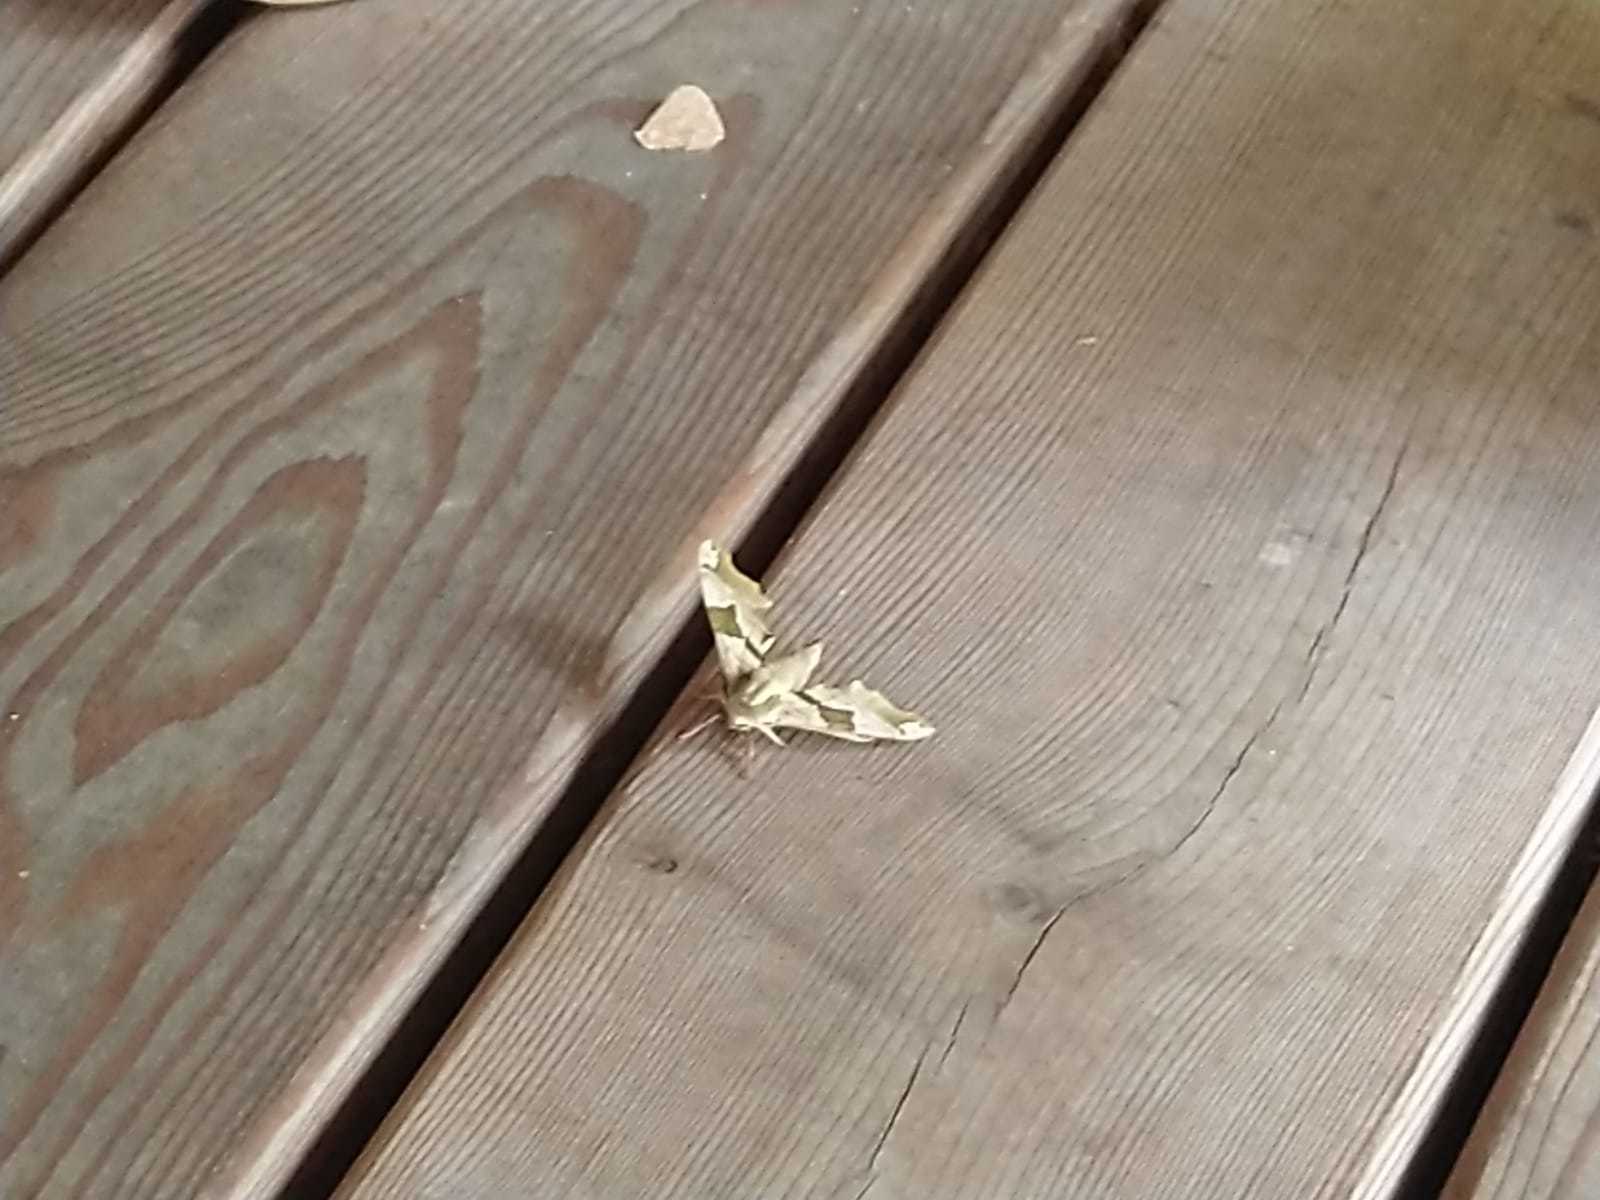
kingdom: Animalia
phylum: Arthropoda
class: Insecta
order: Lepidoptera
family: Sphingidae
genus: Mimas
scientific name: Mimas tiliae
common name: Lime hawk-moth
